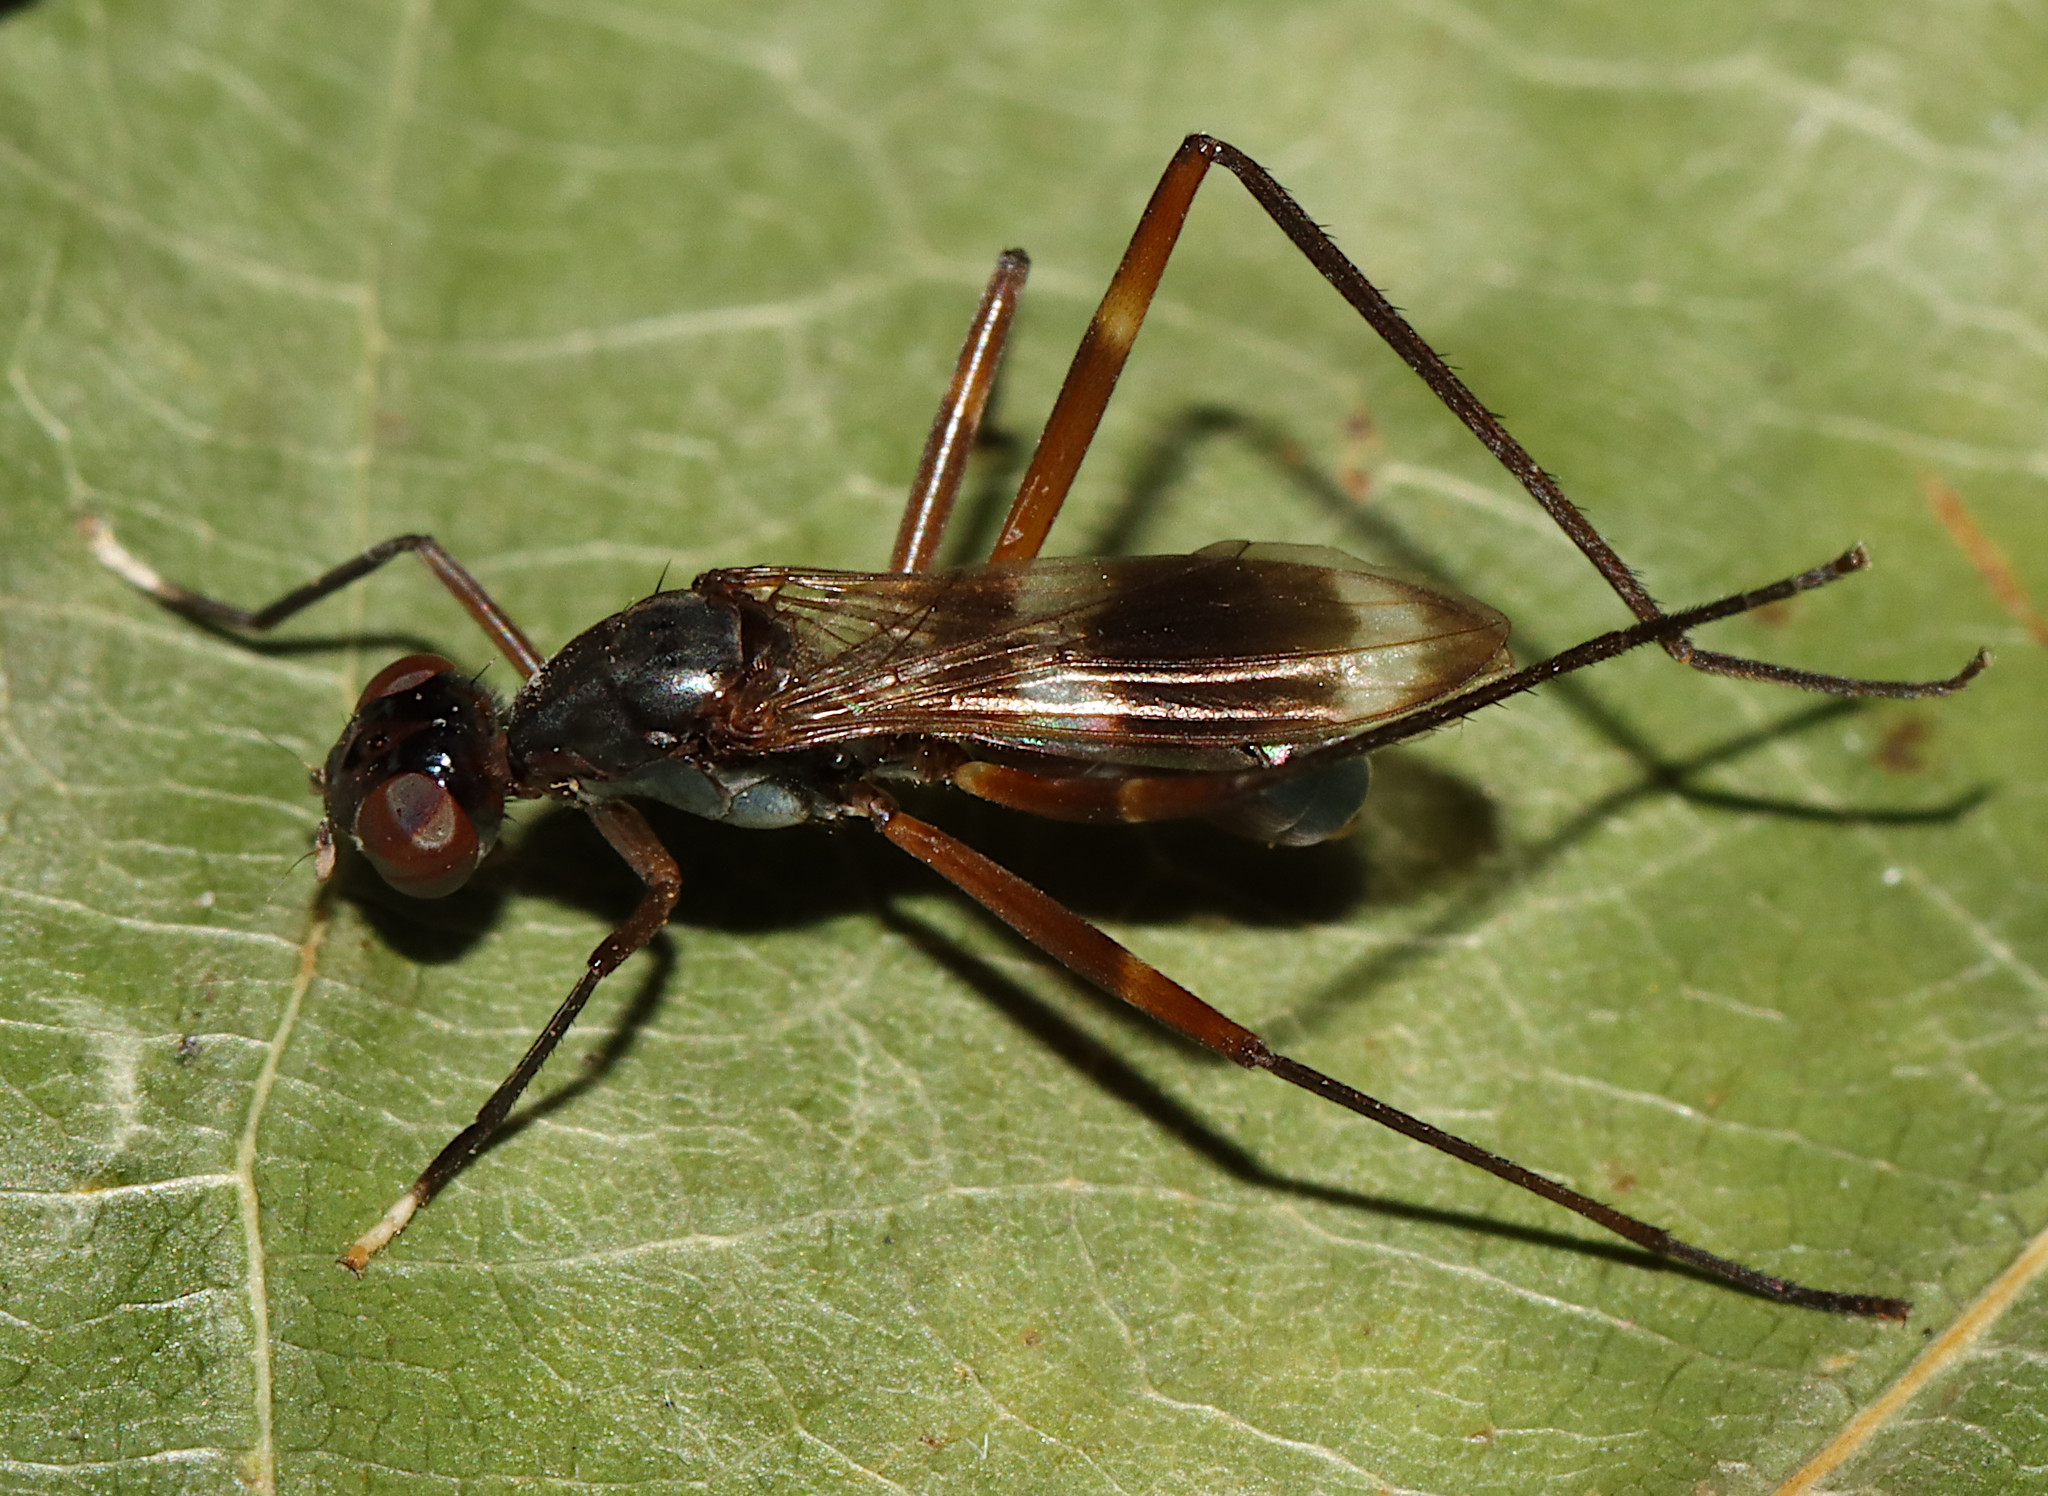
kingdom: Animalia
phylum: Arthropoda
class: Insecta
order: Diptera
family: Micropezidae
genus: Taeniaptera
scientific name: Taeniaptera trivittata
